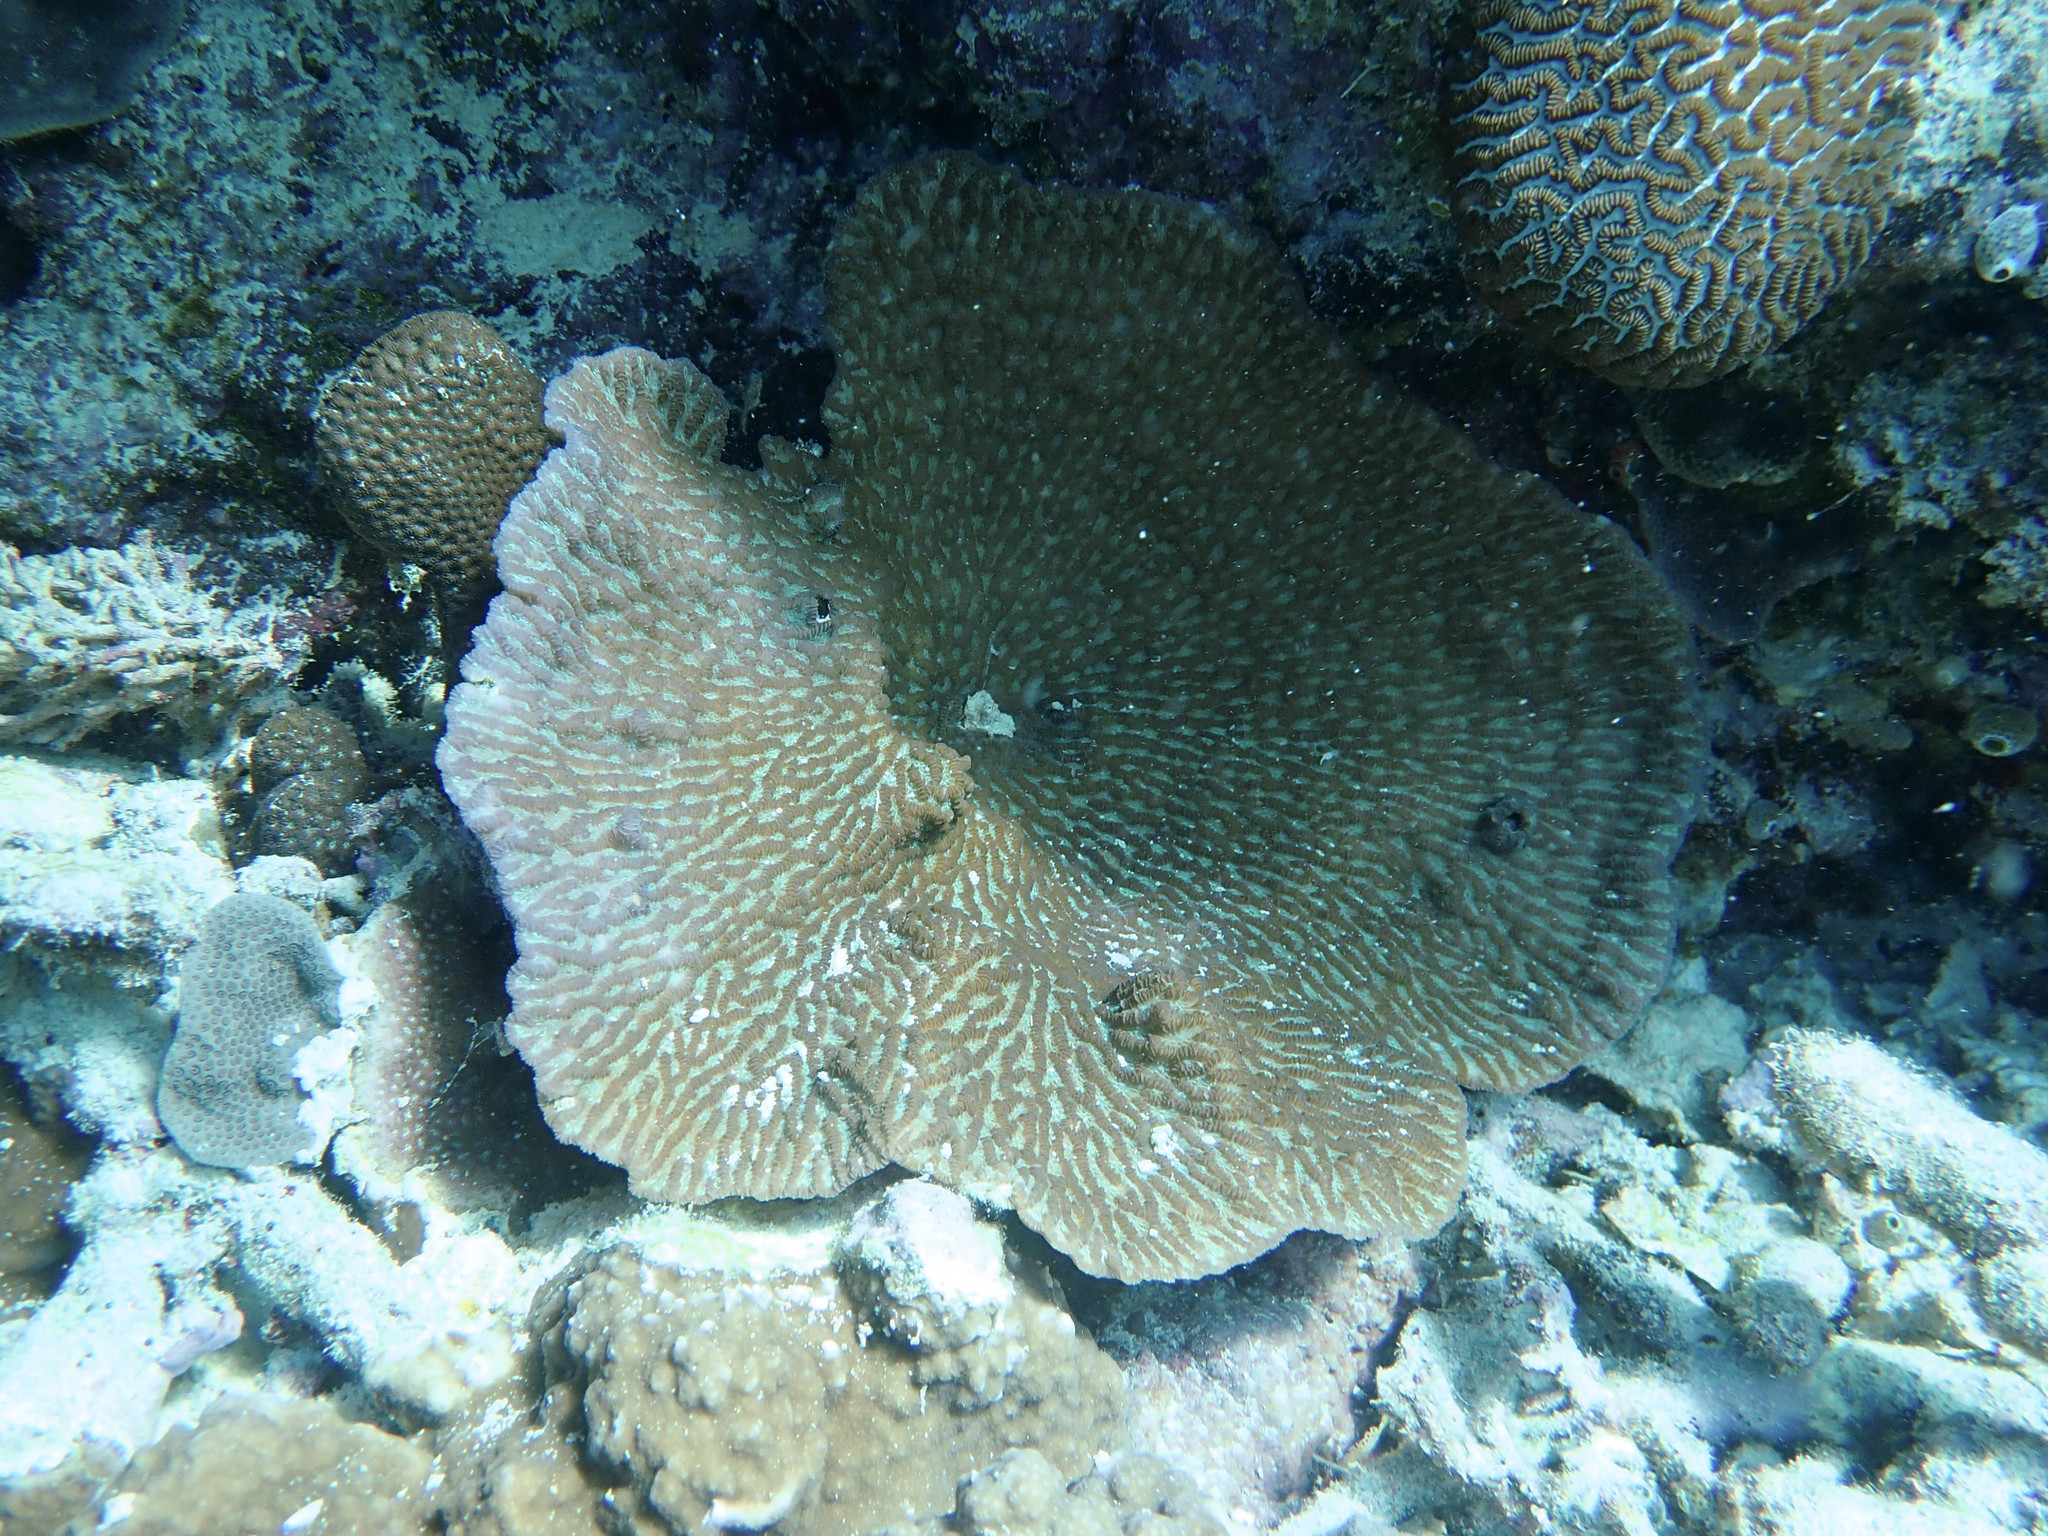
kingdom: Animalia
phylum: Cnidaria
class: Anthozoa
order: Scleractinia
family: Merulinidae
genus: Merulina
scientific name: Merulina ampliata
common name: Crispy crust coral
